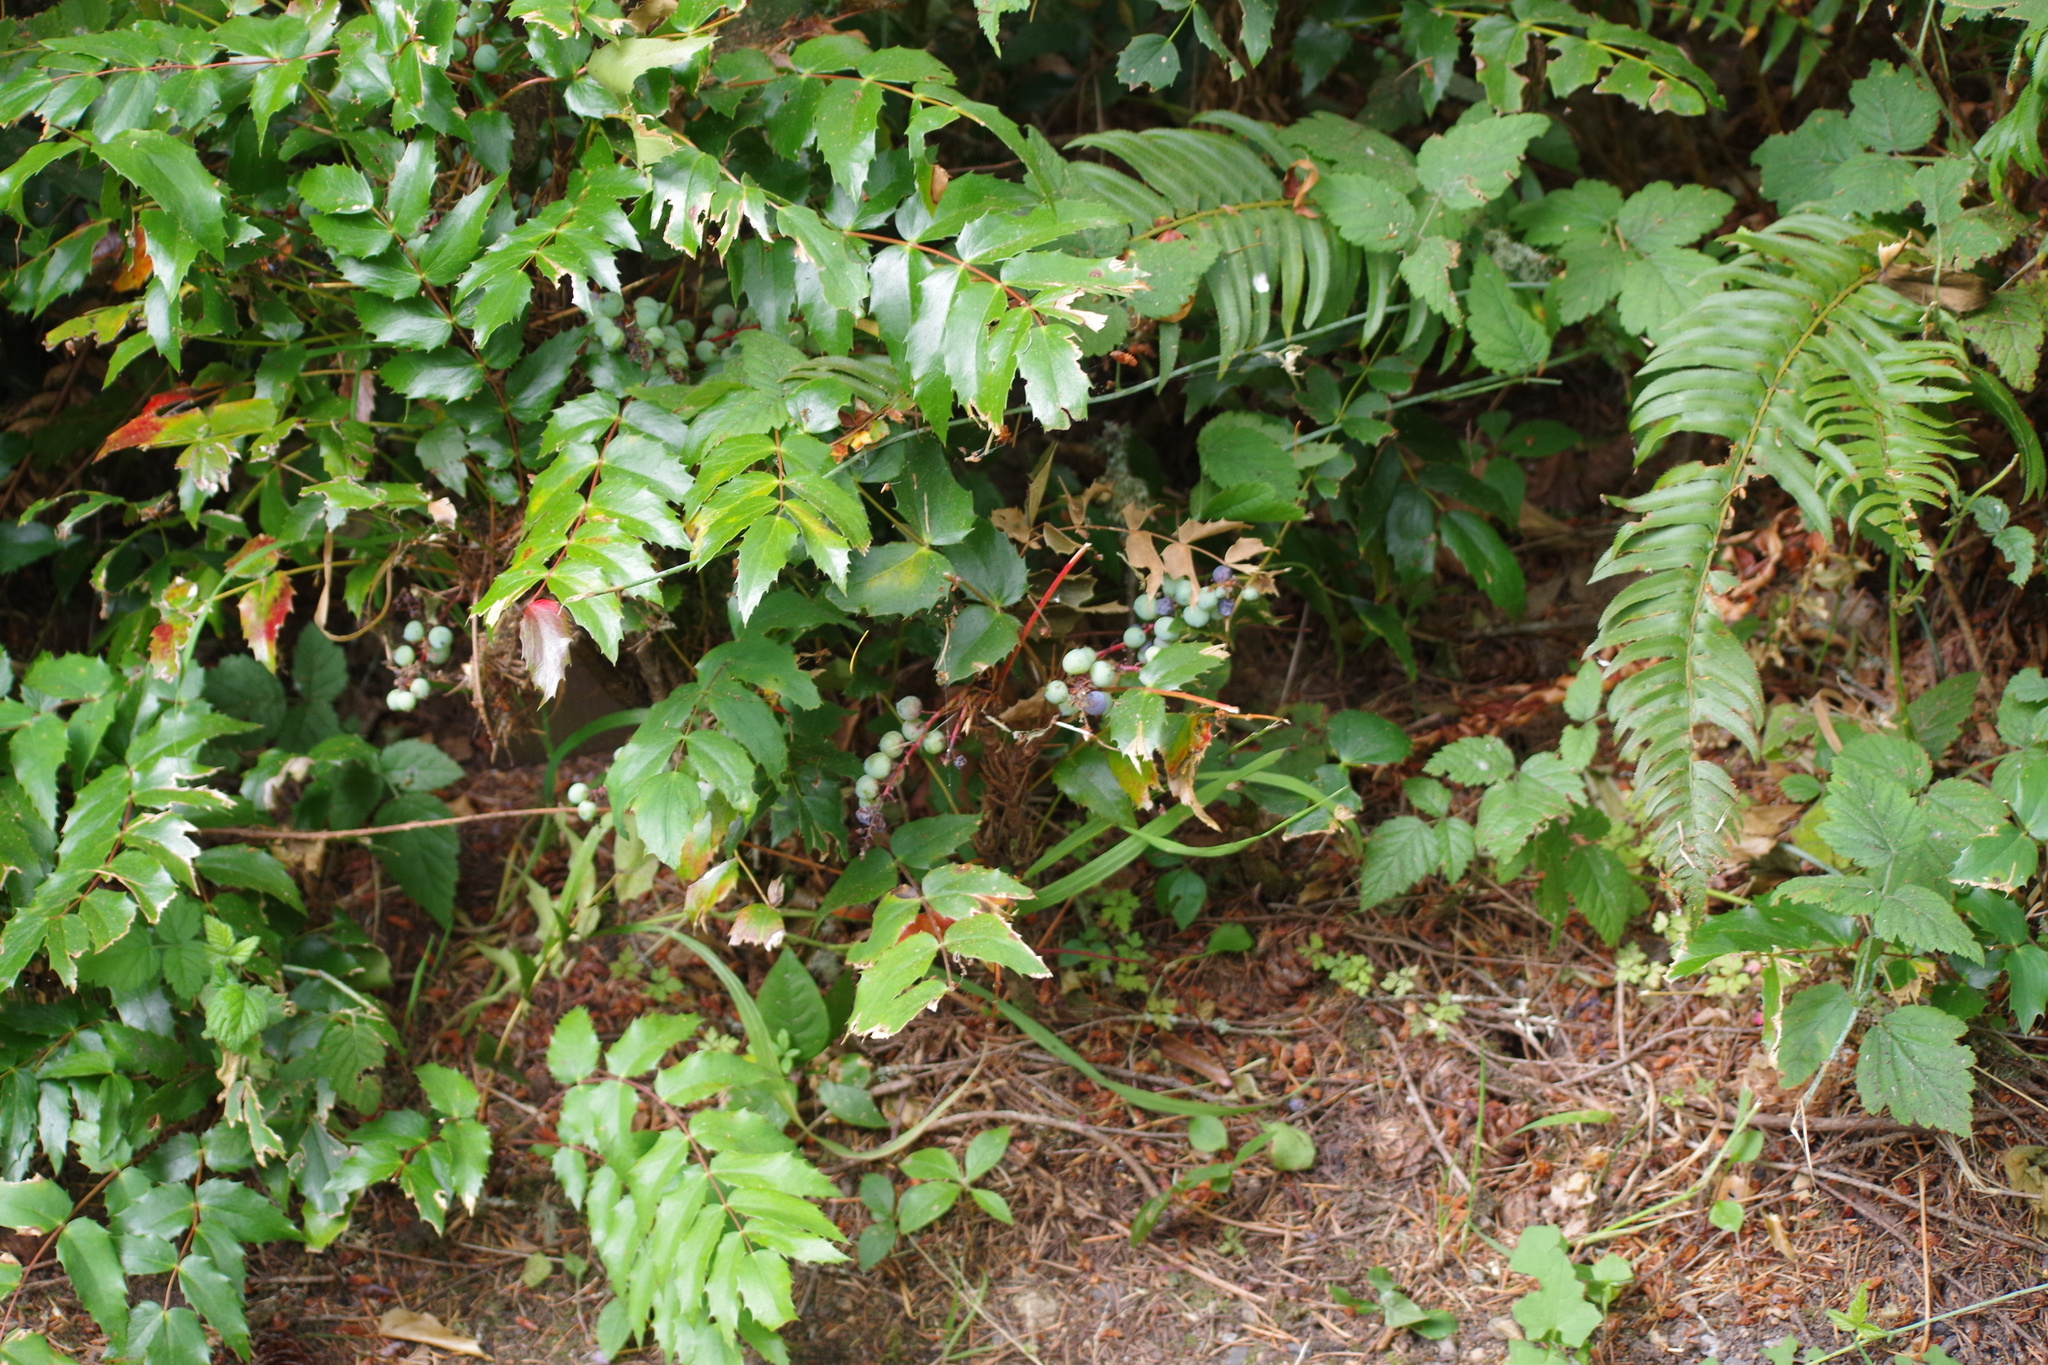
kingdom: Plantae
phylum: Tracheophyta
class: Magnoliopsida
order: Ranunculales
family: Berberidaceae
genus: Mahonia
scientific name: Mahonia nervosa
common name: Cascade oregon-grape
